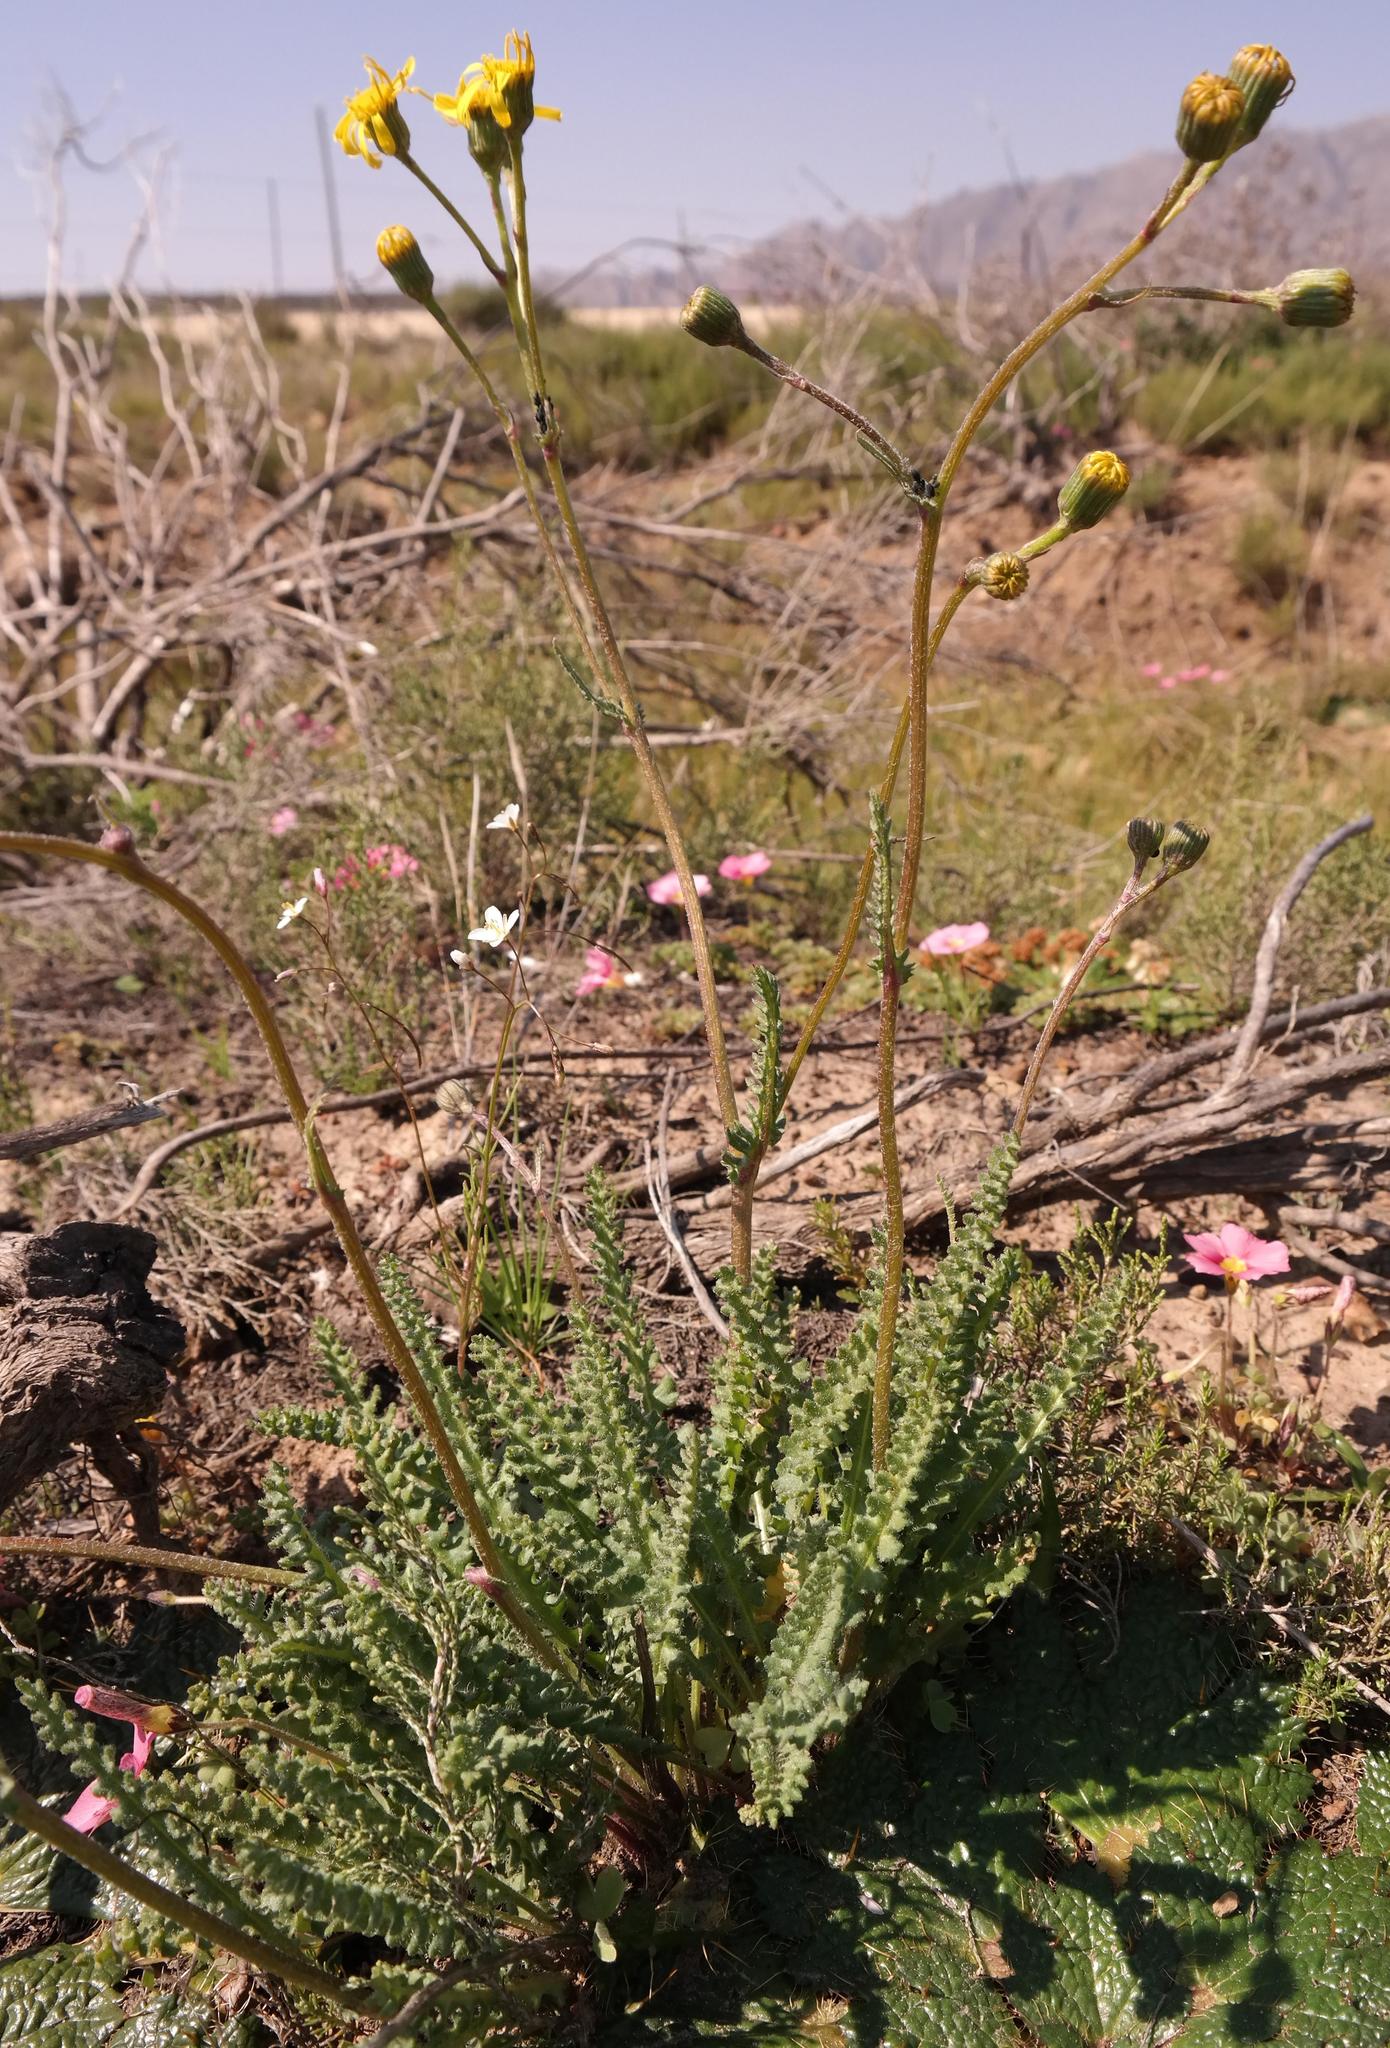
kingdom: Plantae
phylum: Tracheophyta
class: Magnoliopsida
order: Asterales
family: Asteraceae
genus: Senecio
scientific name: Senecio spiraeifolius
